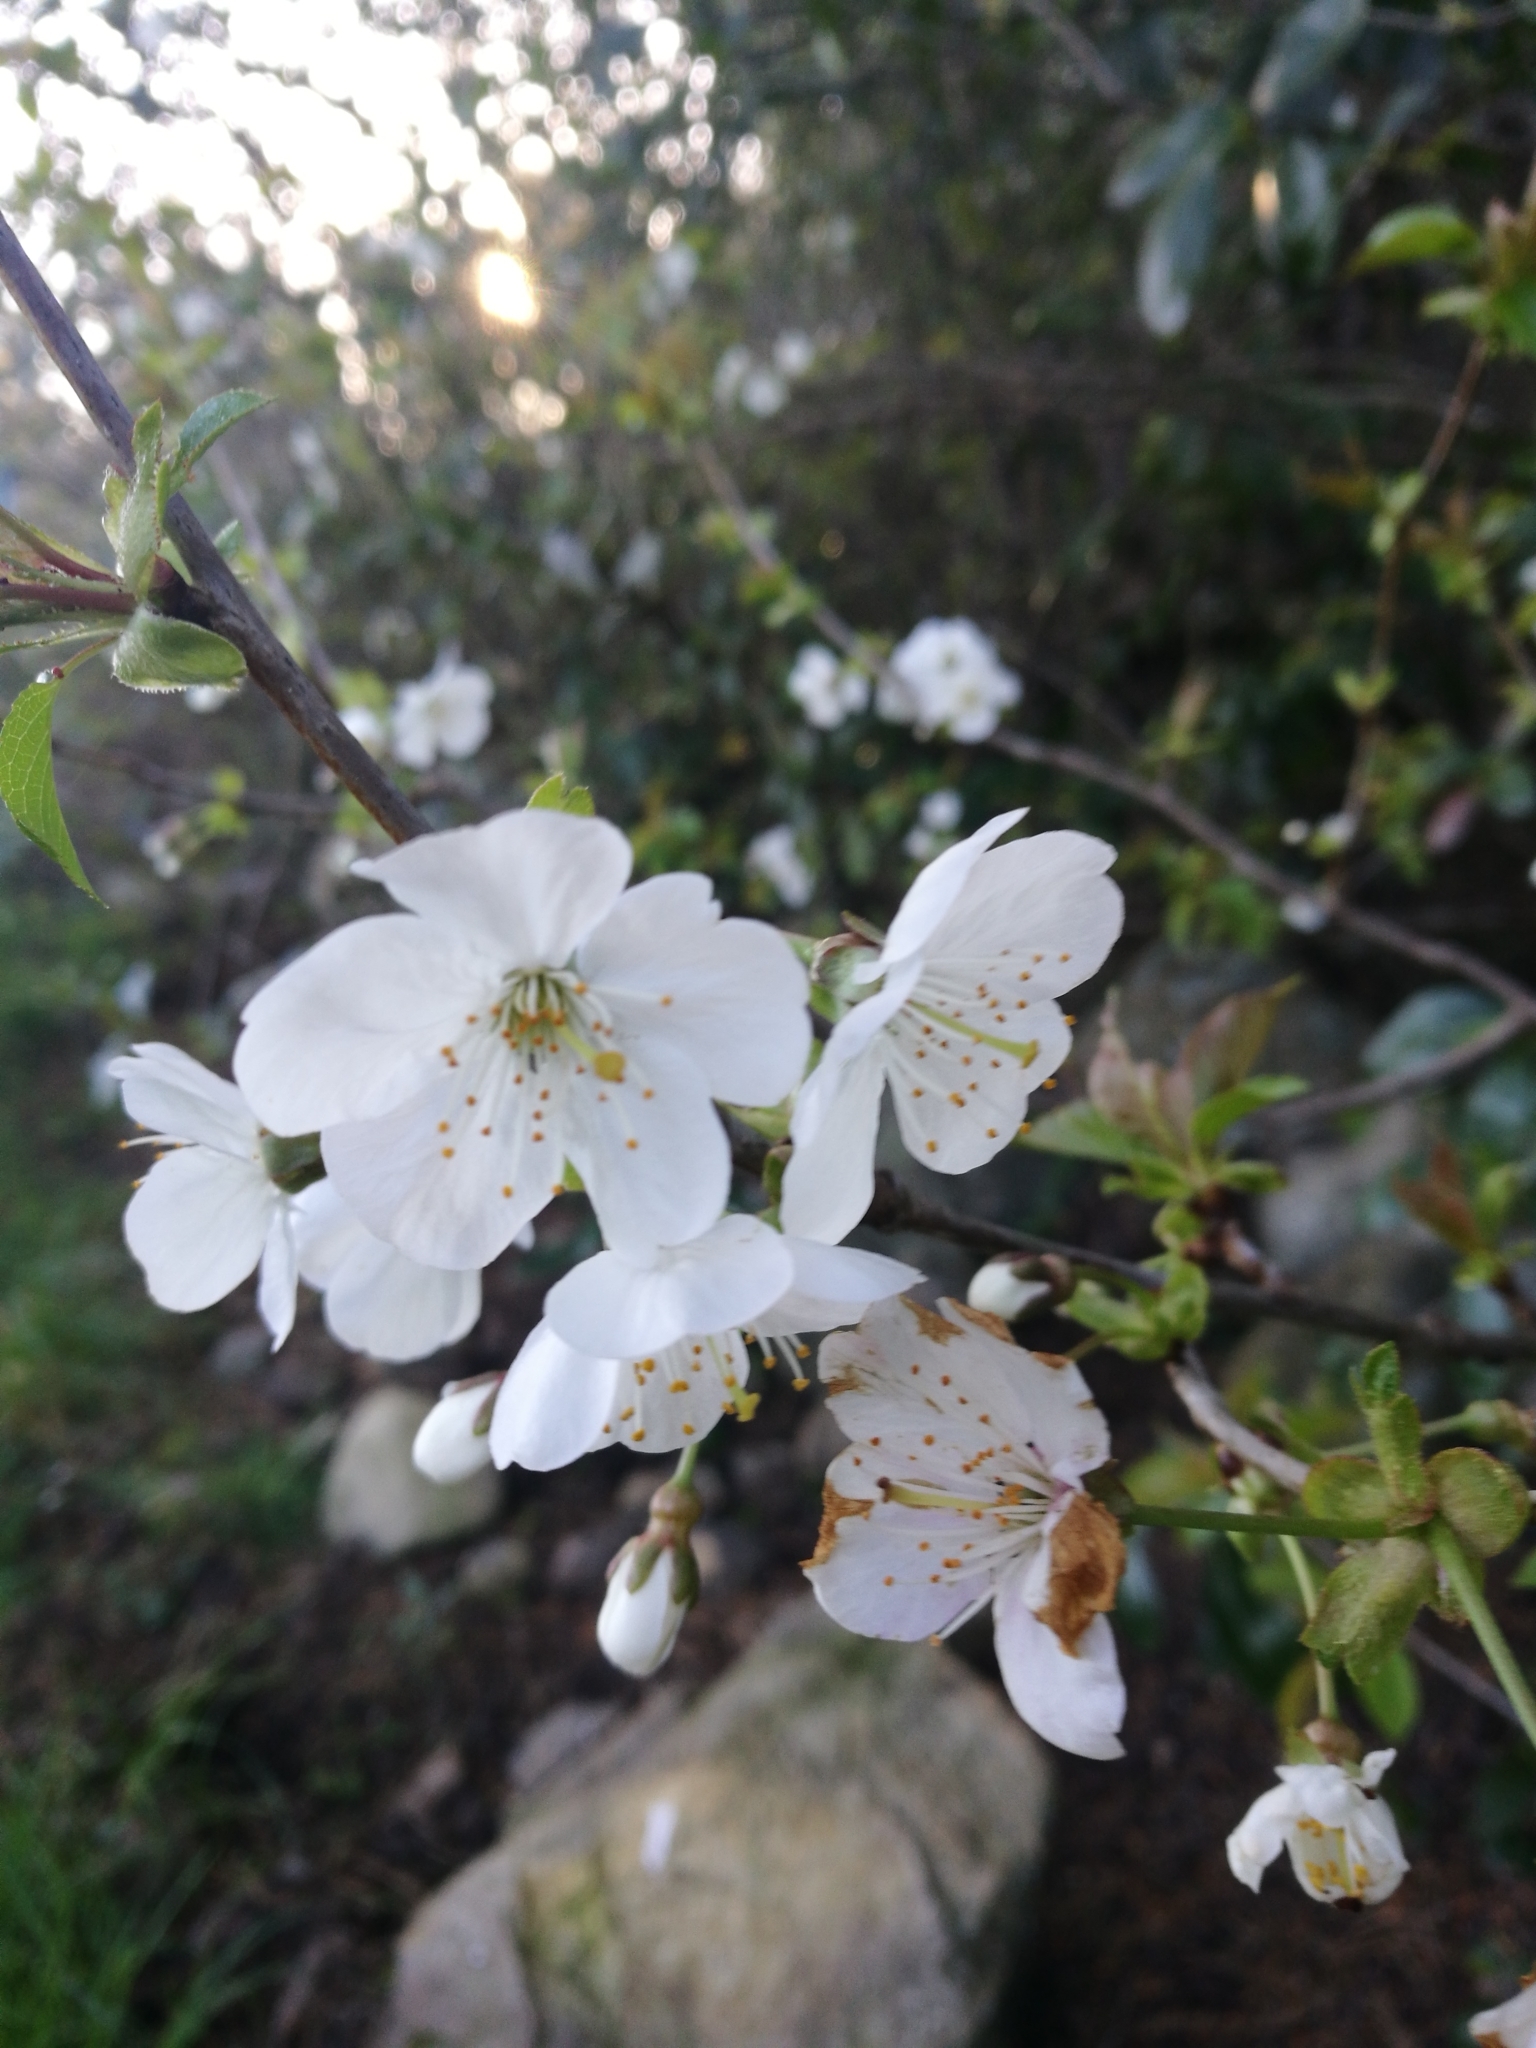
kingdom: Plantae
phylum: Tracheophyta
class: Magnoliopsida
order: Rosales
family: Rosaceae
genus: Prunus
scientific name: Prunus cerasifera
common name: Cherry plum
